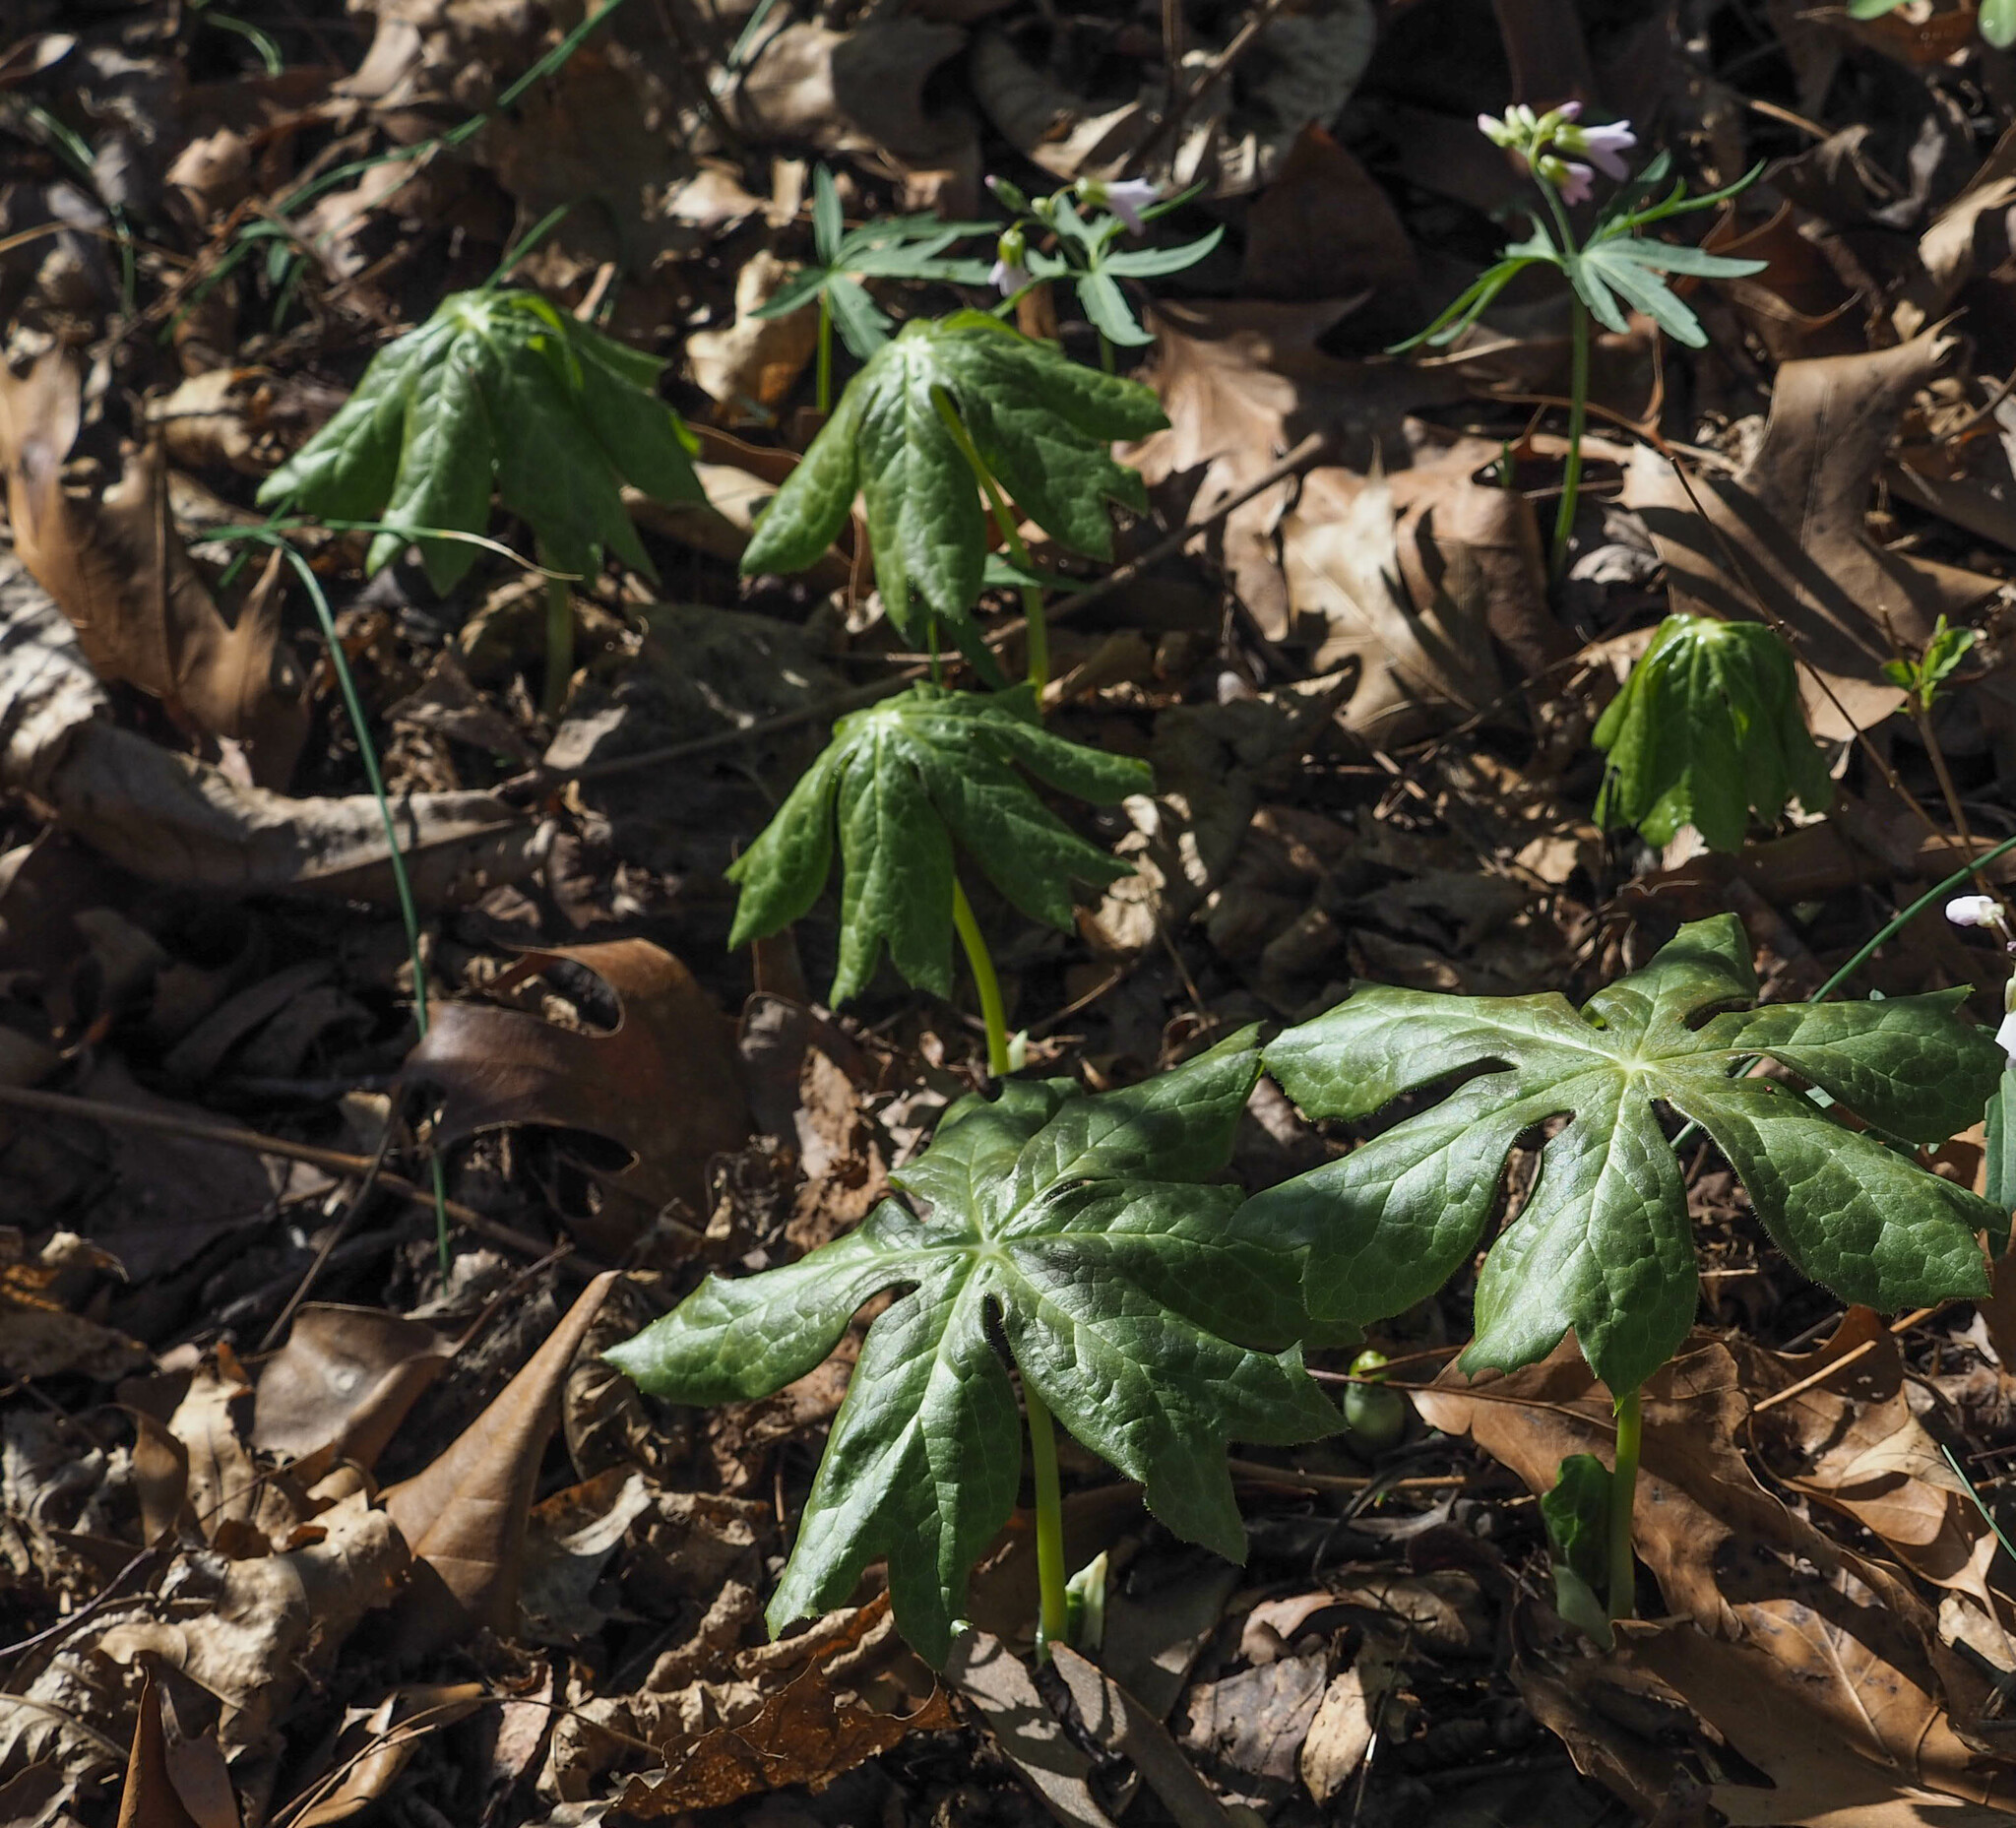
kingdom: Plantae
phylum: Tracheophyta
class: Magnoliopsida
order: Ranunculales
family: Berberidaceae
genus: Podophyllum
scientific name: Podophyllum peltatum
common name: Wild mandrake
